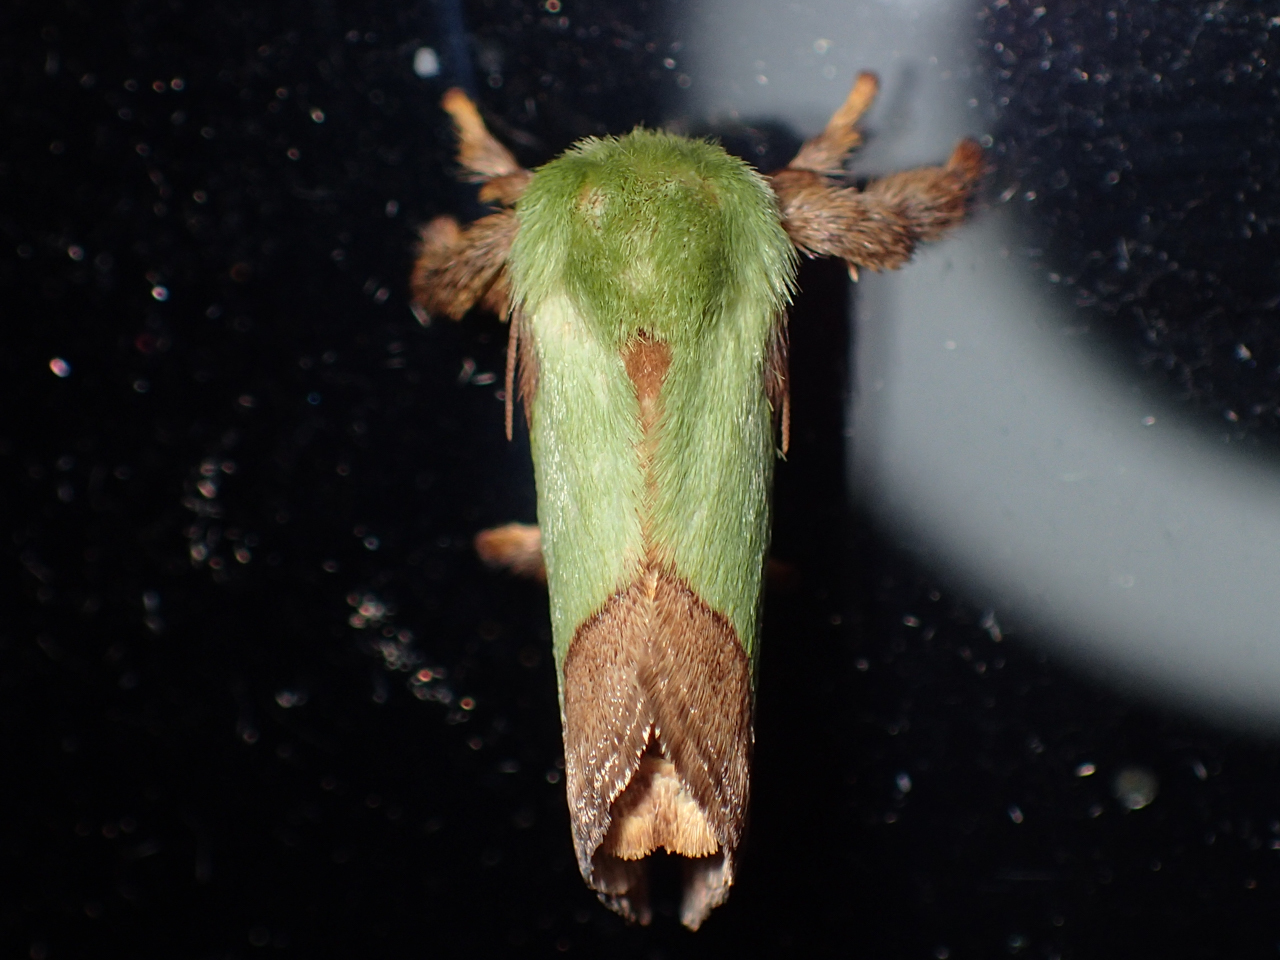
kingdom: Animalia
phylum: Arthropoda
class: Insecta
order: Lepidoptera
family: Limacodidae
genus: Parasa
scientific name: Parasa indetermina
